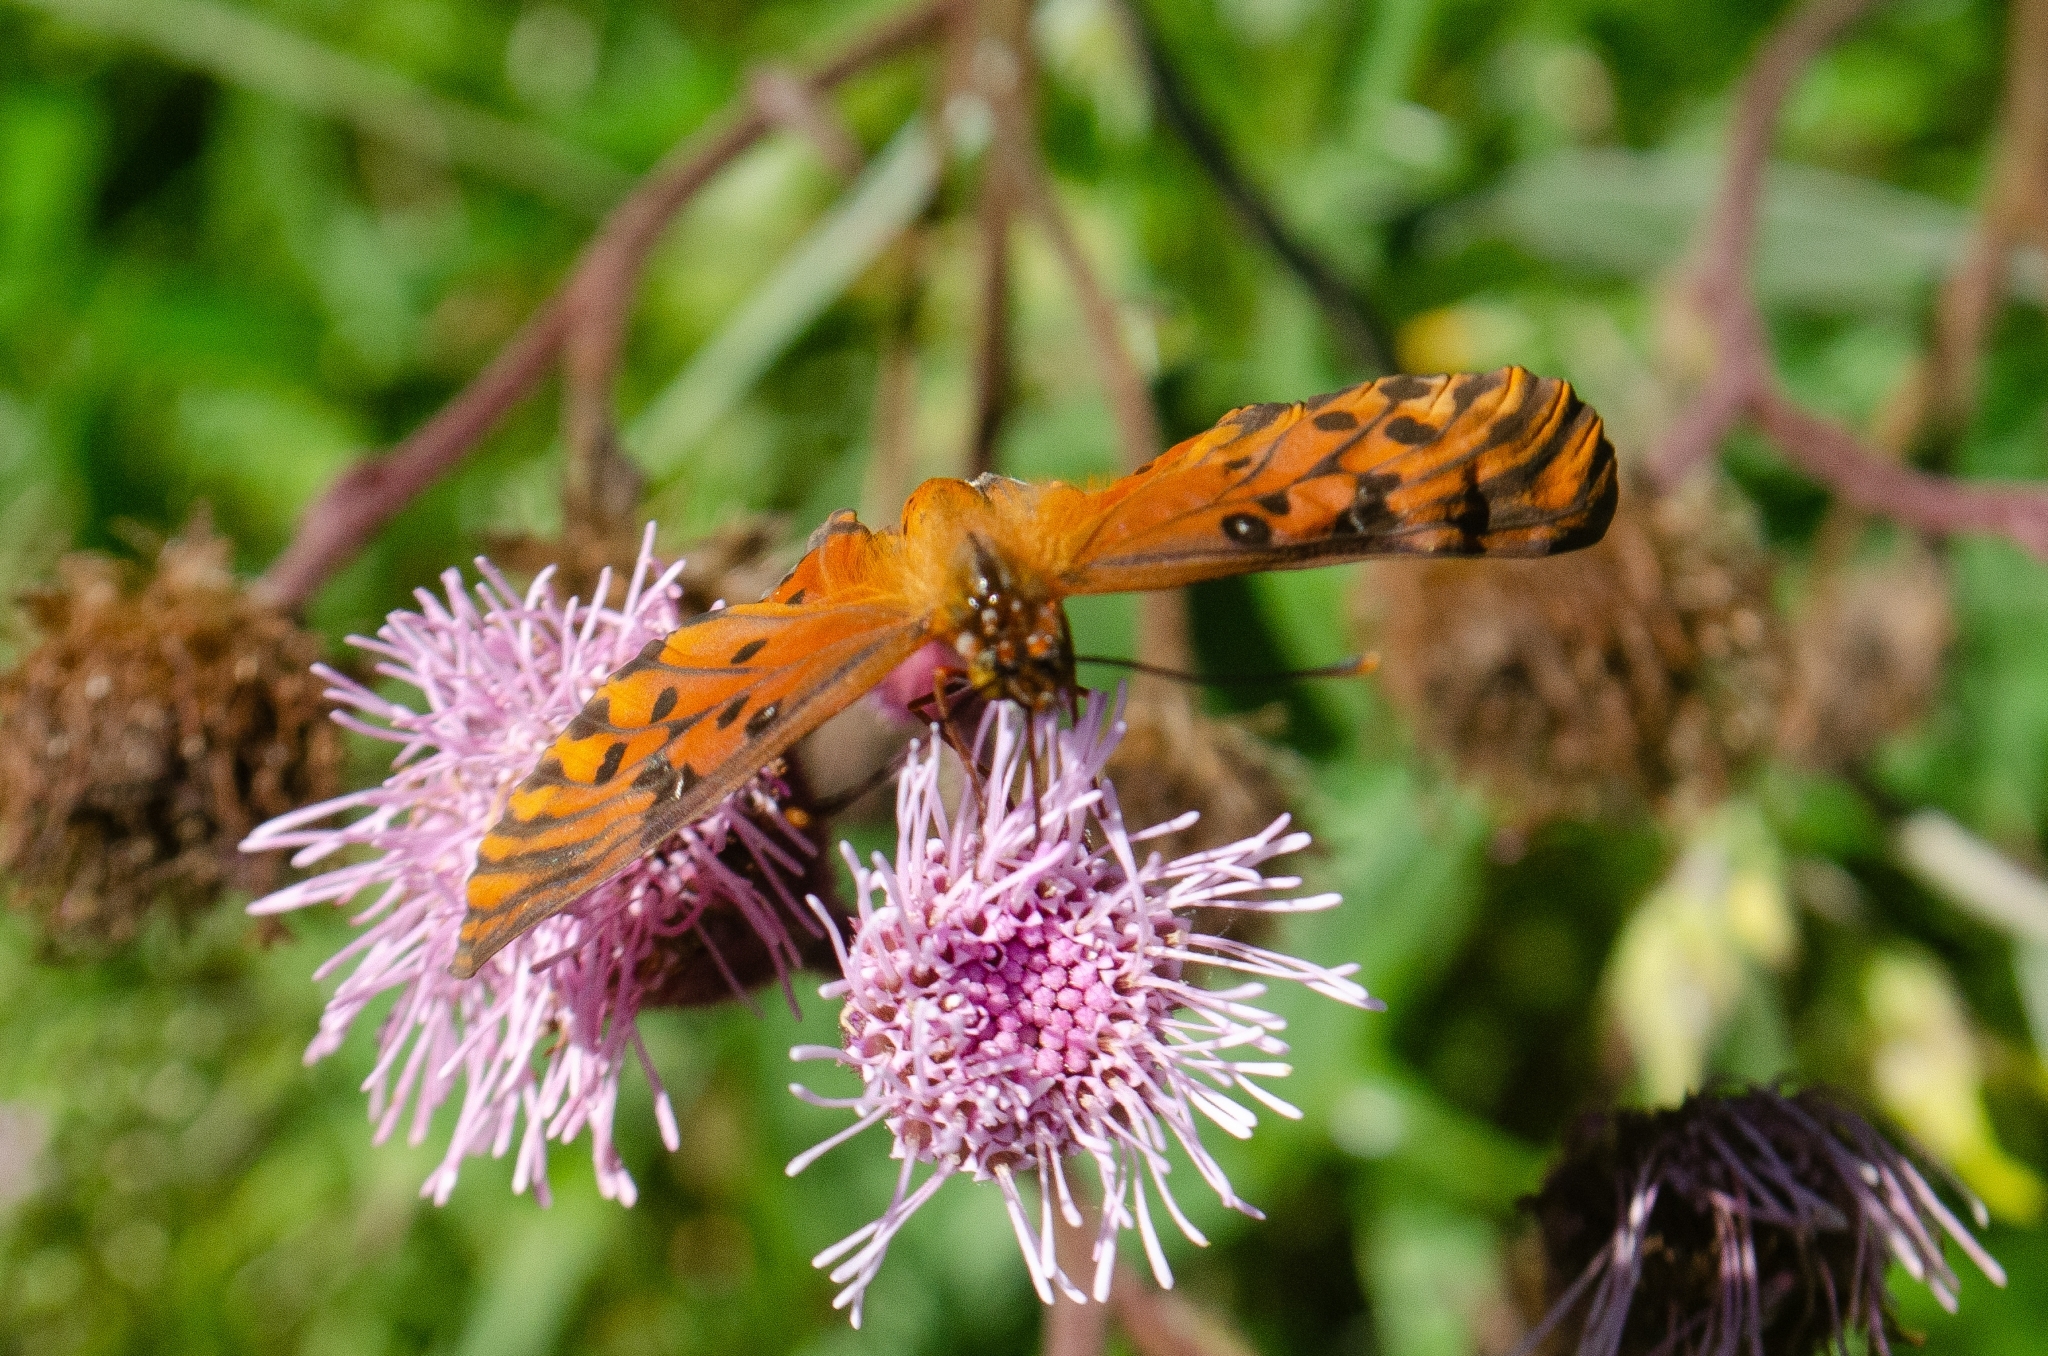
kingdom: Animalia
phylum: Arthropoda
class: Insecta
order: Lepidoptera
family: Nymphalidae
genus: Dione
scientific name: Dione vanillae
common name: Gulf fritillary
